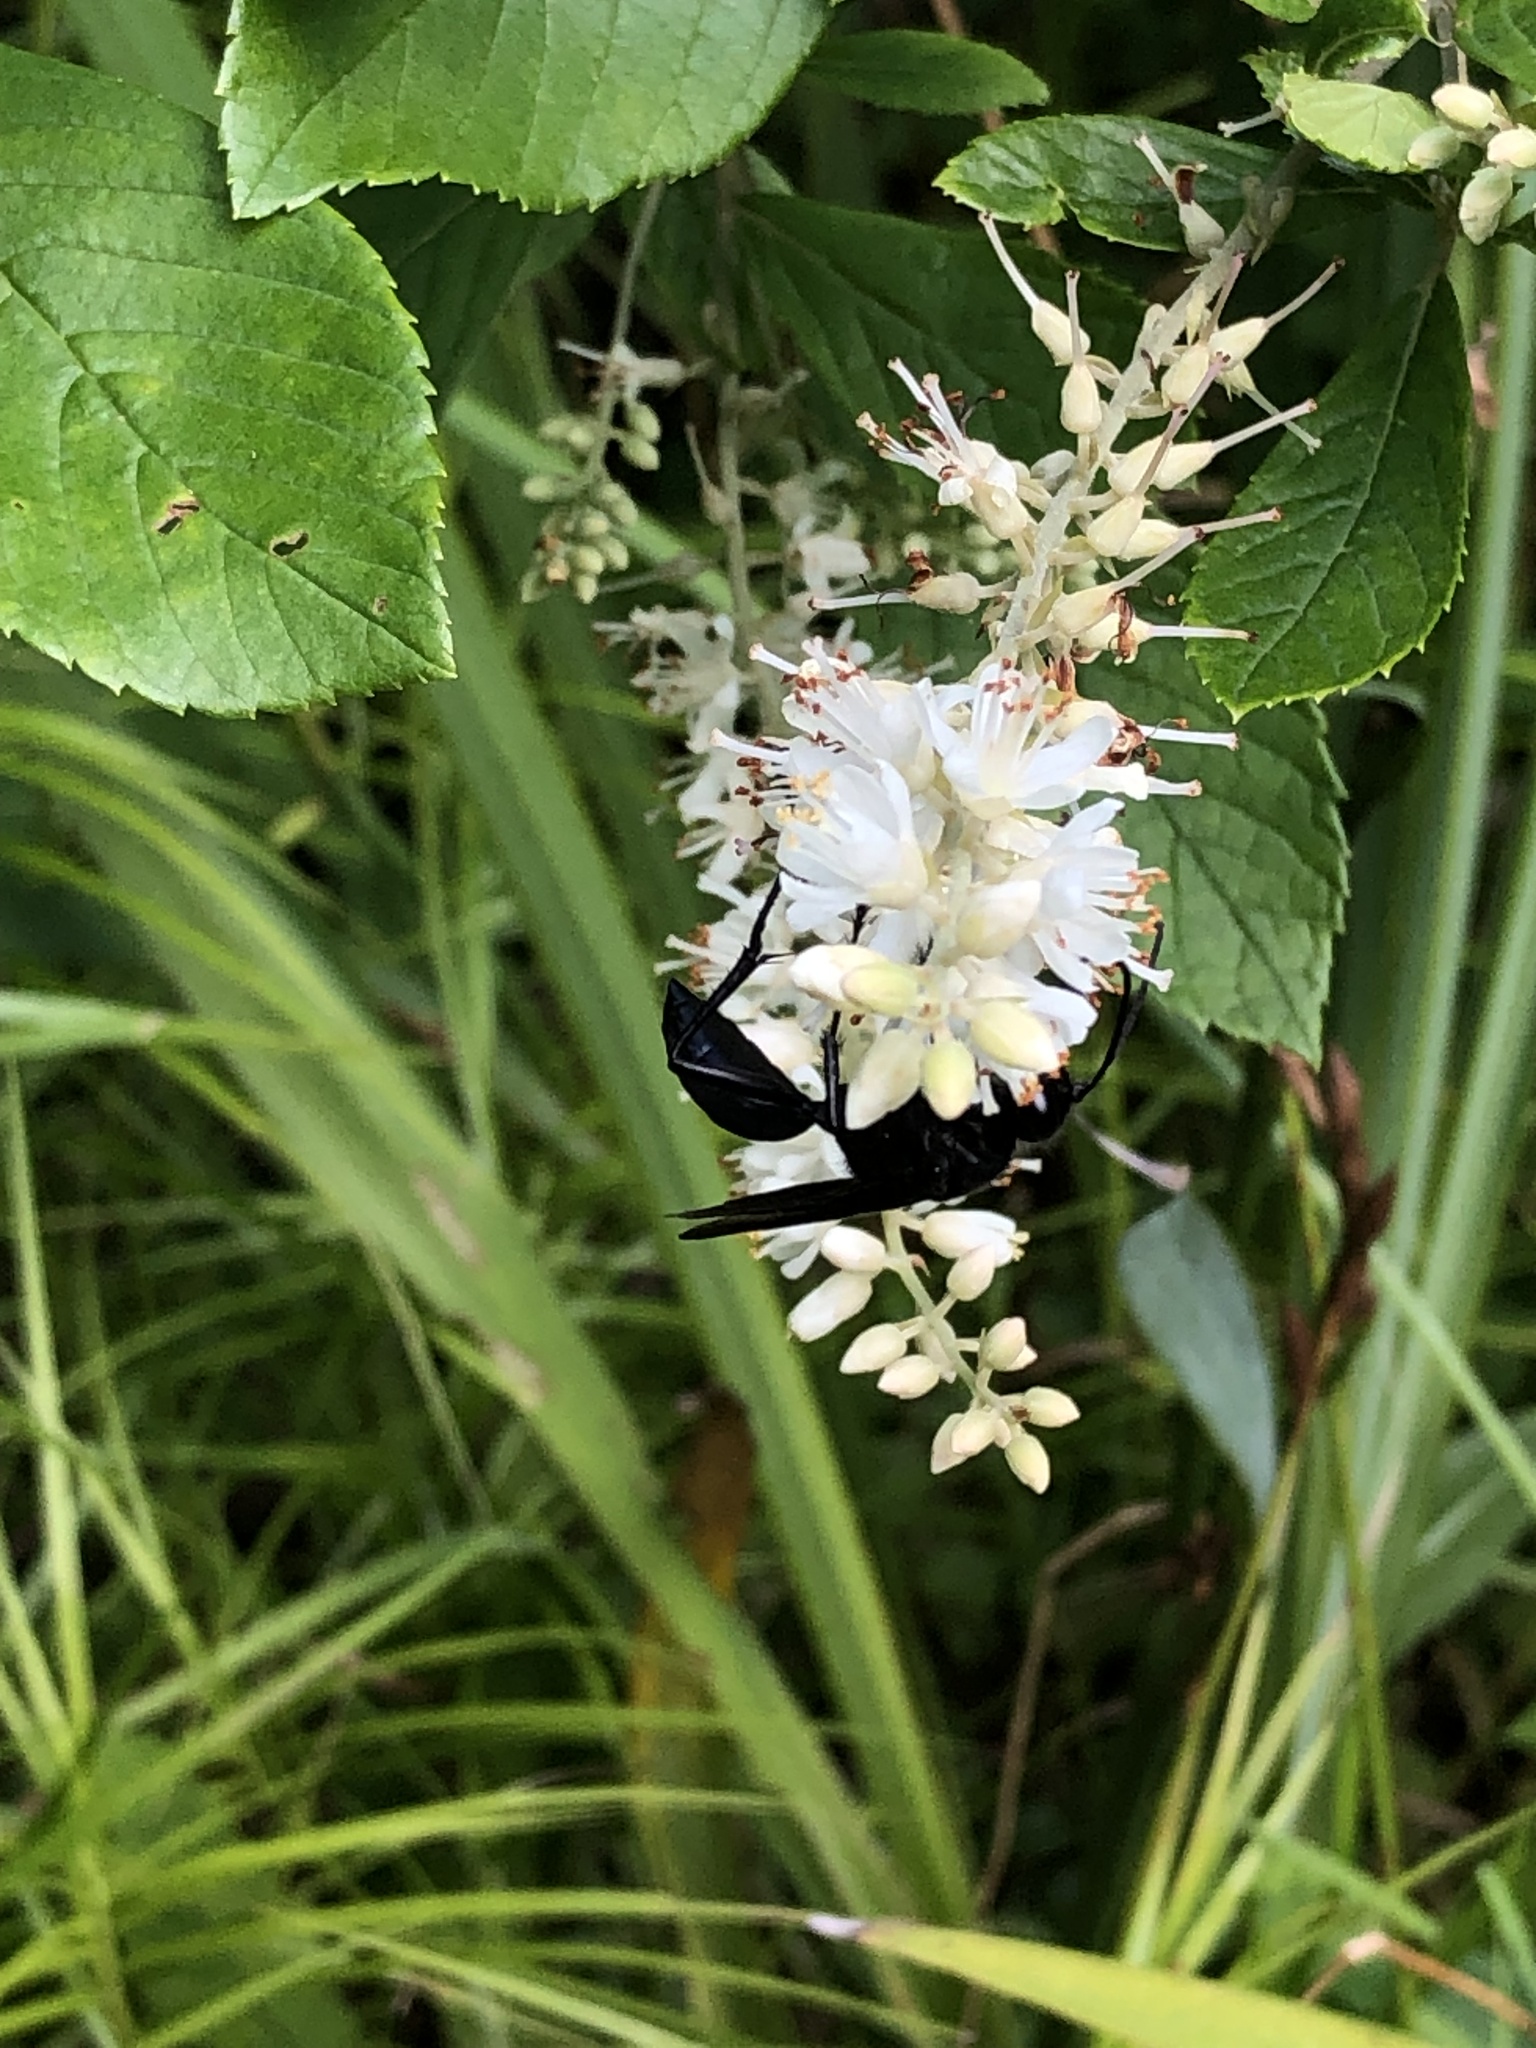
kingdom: Animalia
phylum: Arthropoda
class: Insecta
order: Hymenoptera
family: Sphecidae
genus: Sphex
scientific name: Sphex pensylvanicus
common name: Great black digger wasp
